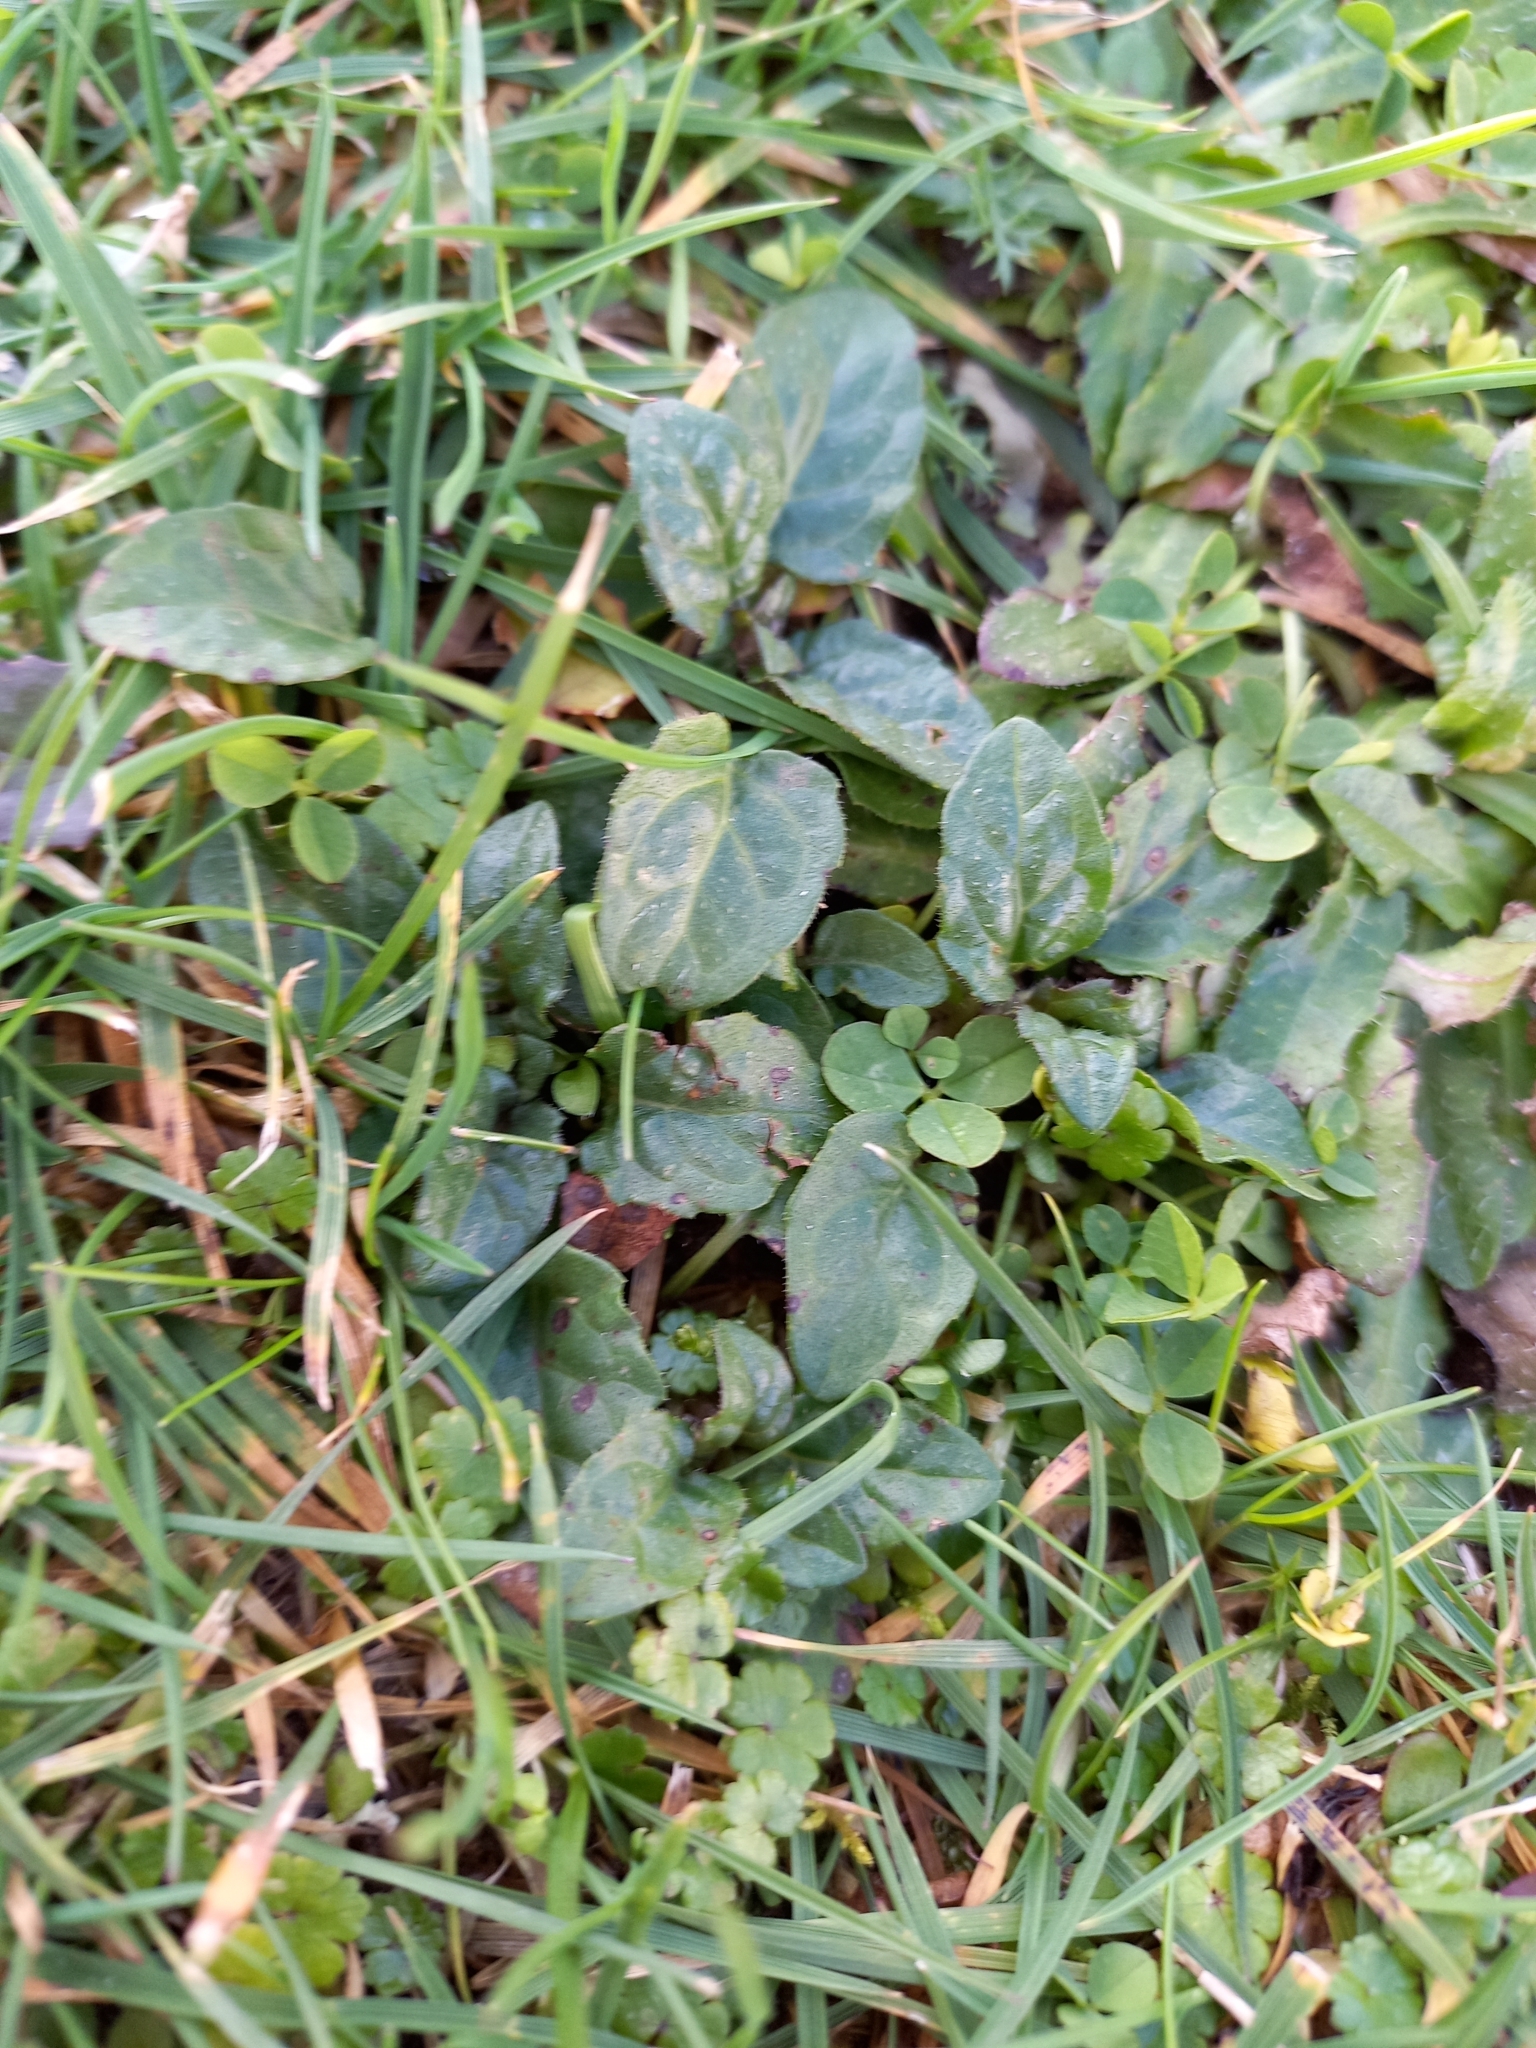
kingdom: Plantae
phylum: Tracheophyta
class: Magnoliopsida
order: Lamiales
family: Lamiaceae
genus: Prunella
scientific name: Prunella vulgaris
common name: Heal-all
